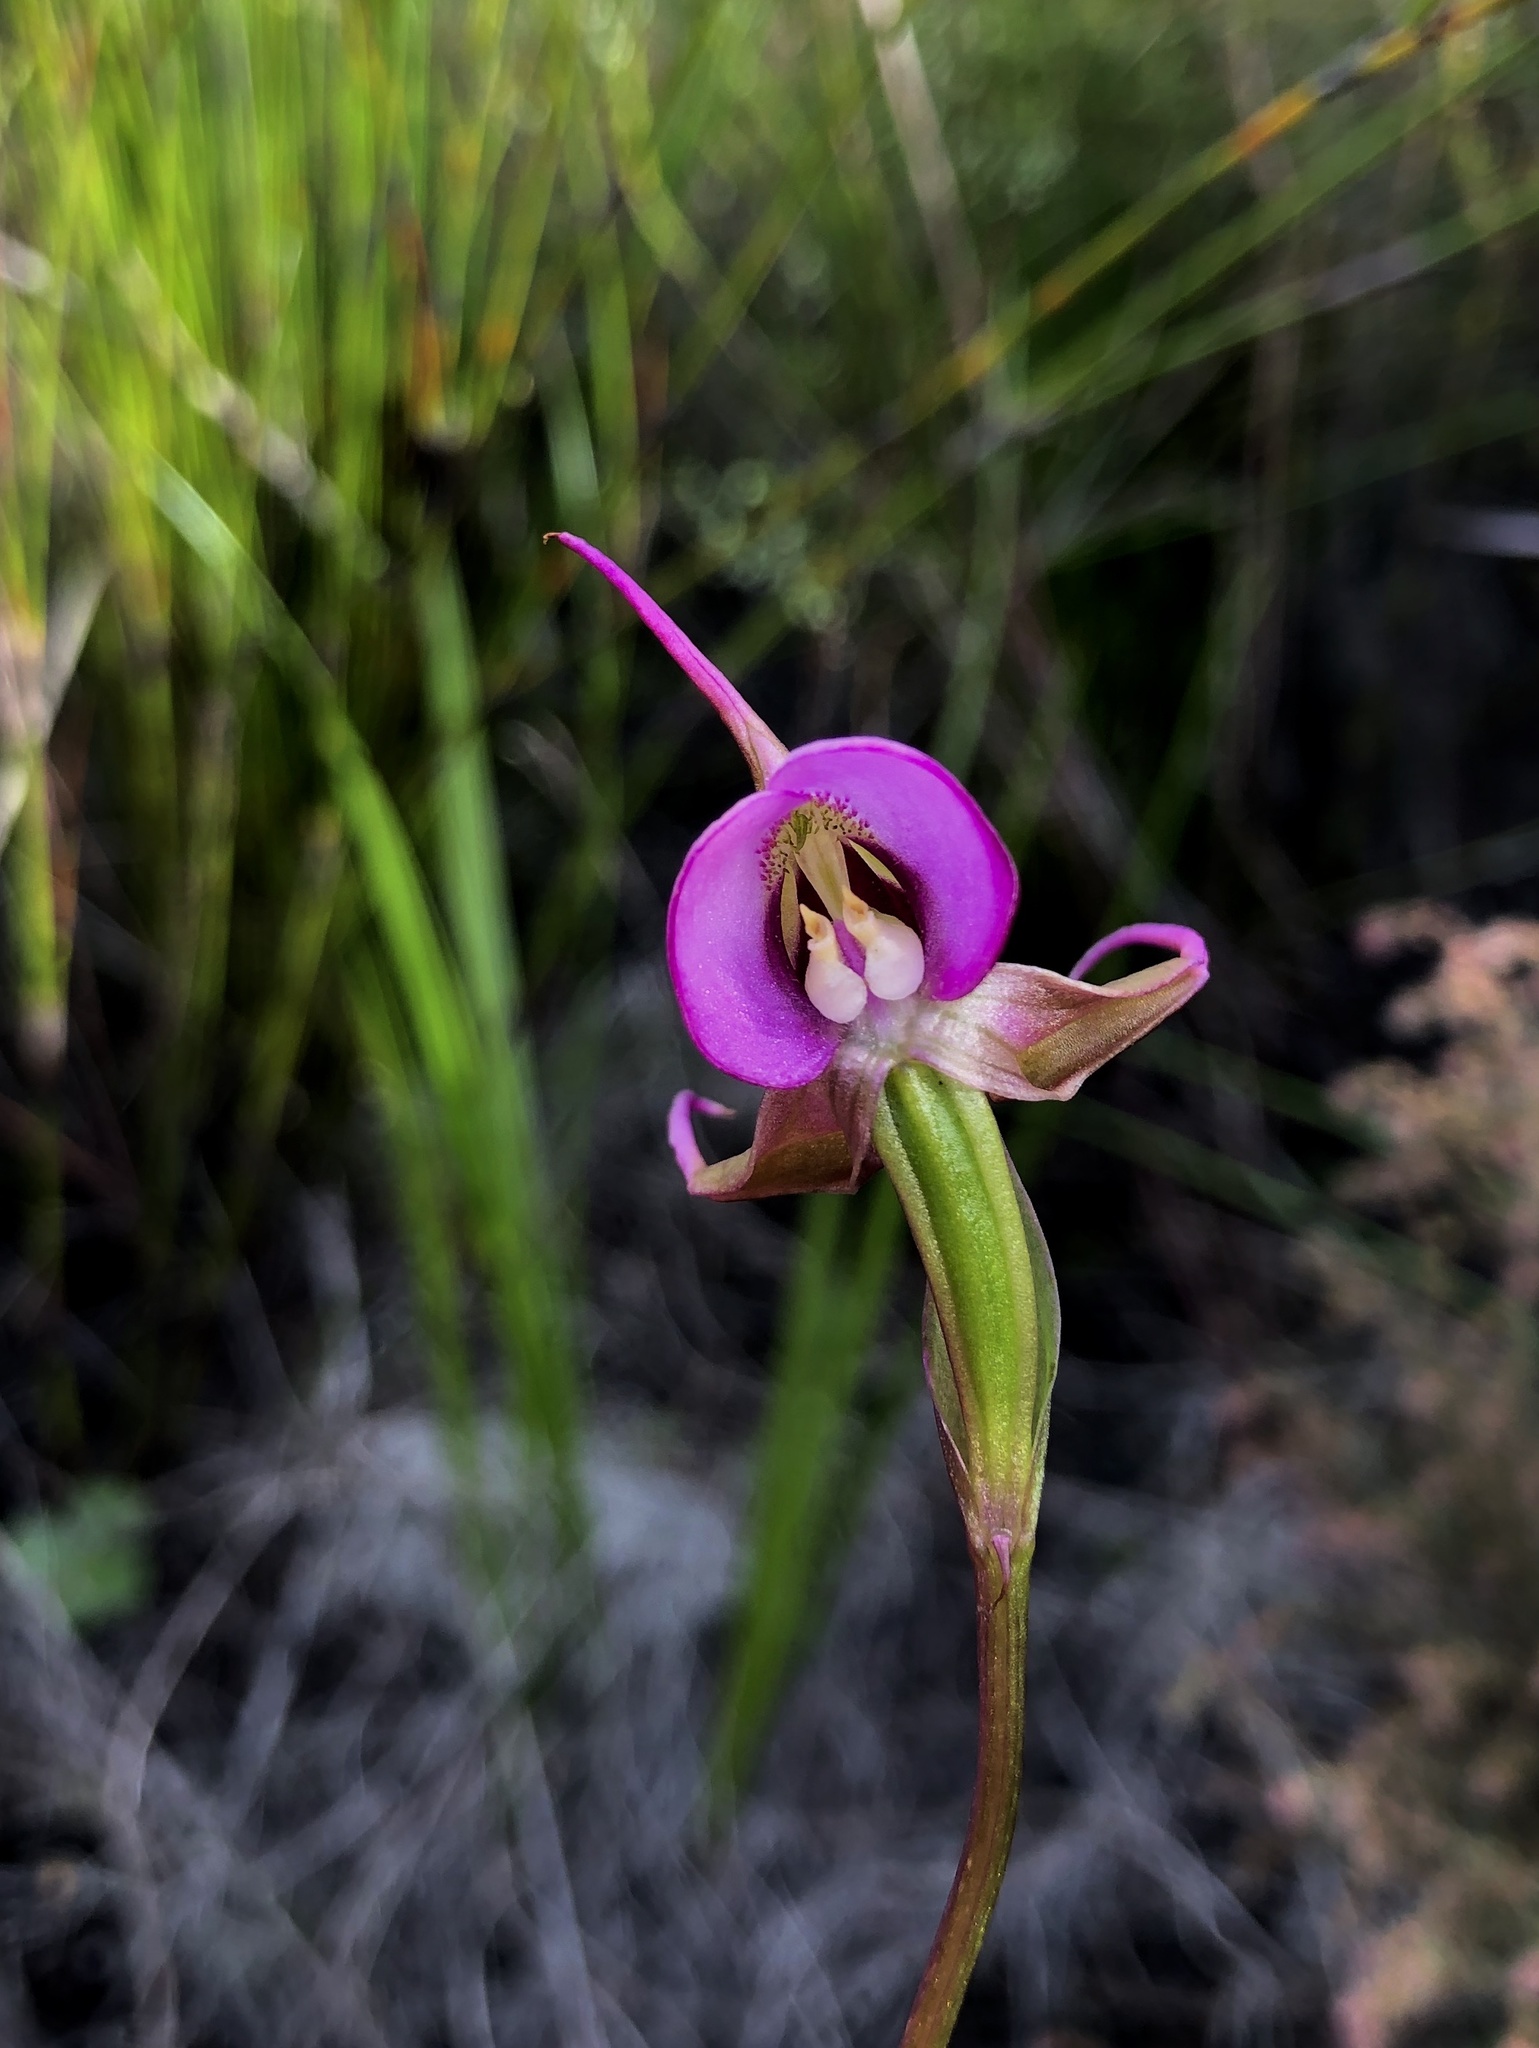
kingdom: Plantae
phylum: Tracheophyta
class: Liliopsida
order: Asparagales
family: Orchidaceae
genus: Disperis
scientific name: Disperis capensis
